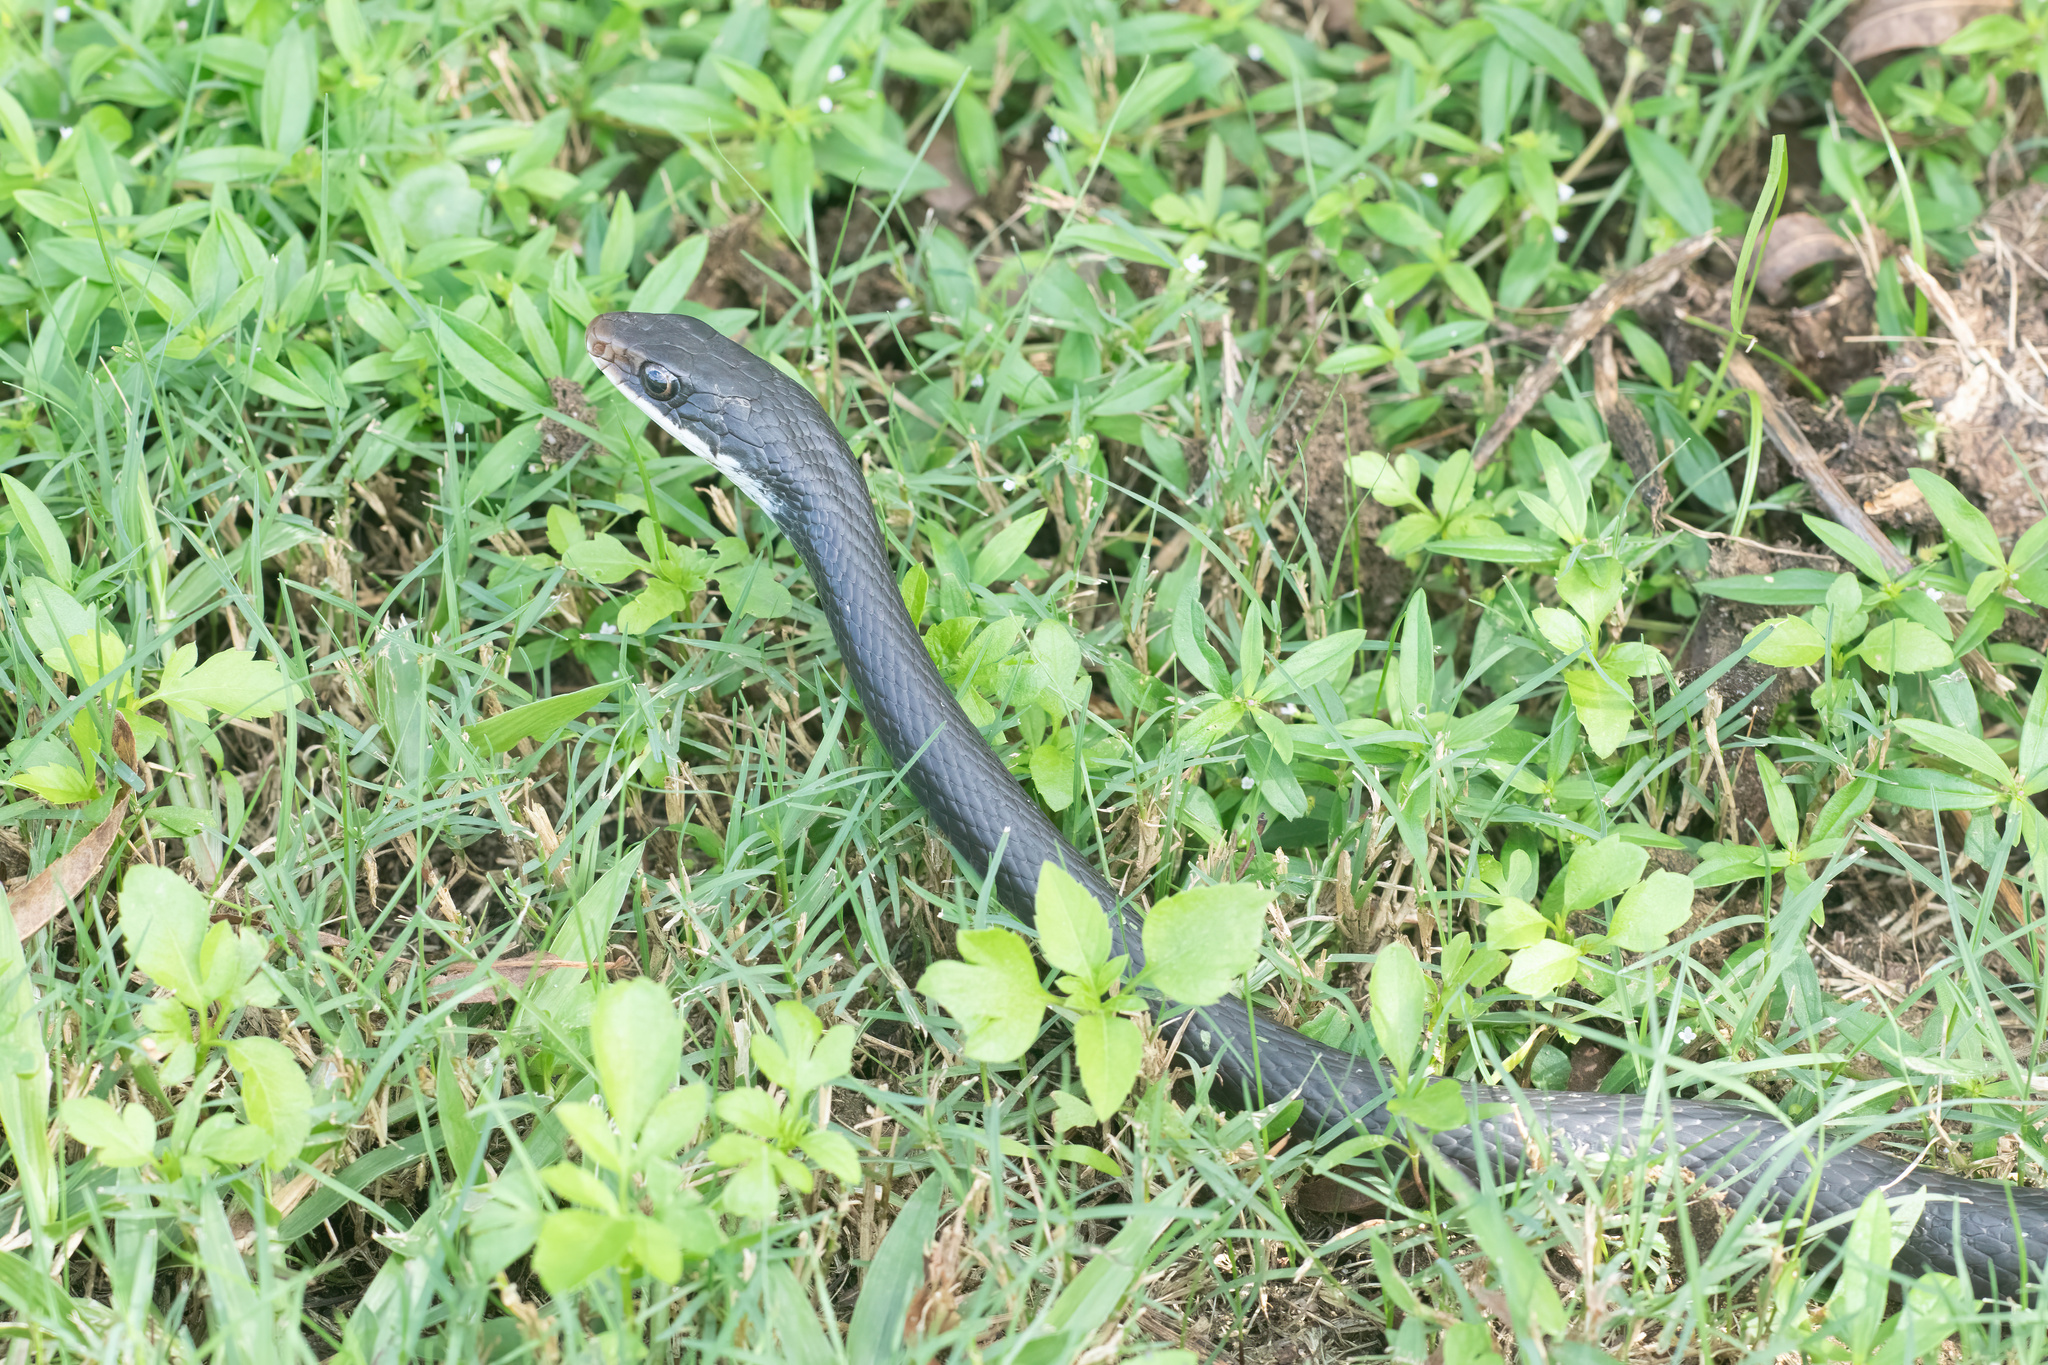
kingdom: Animalia
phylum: Chordata
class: Squamata
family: Colubridae
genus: Coluber
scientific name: Coluber constrictor
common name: Eastern racer
